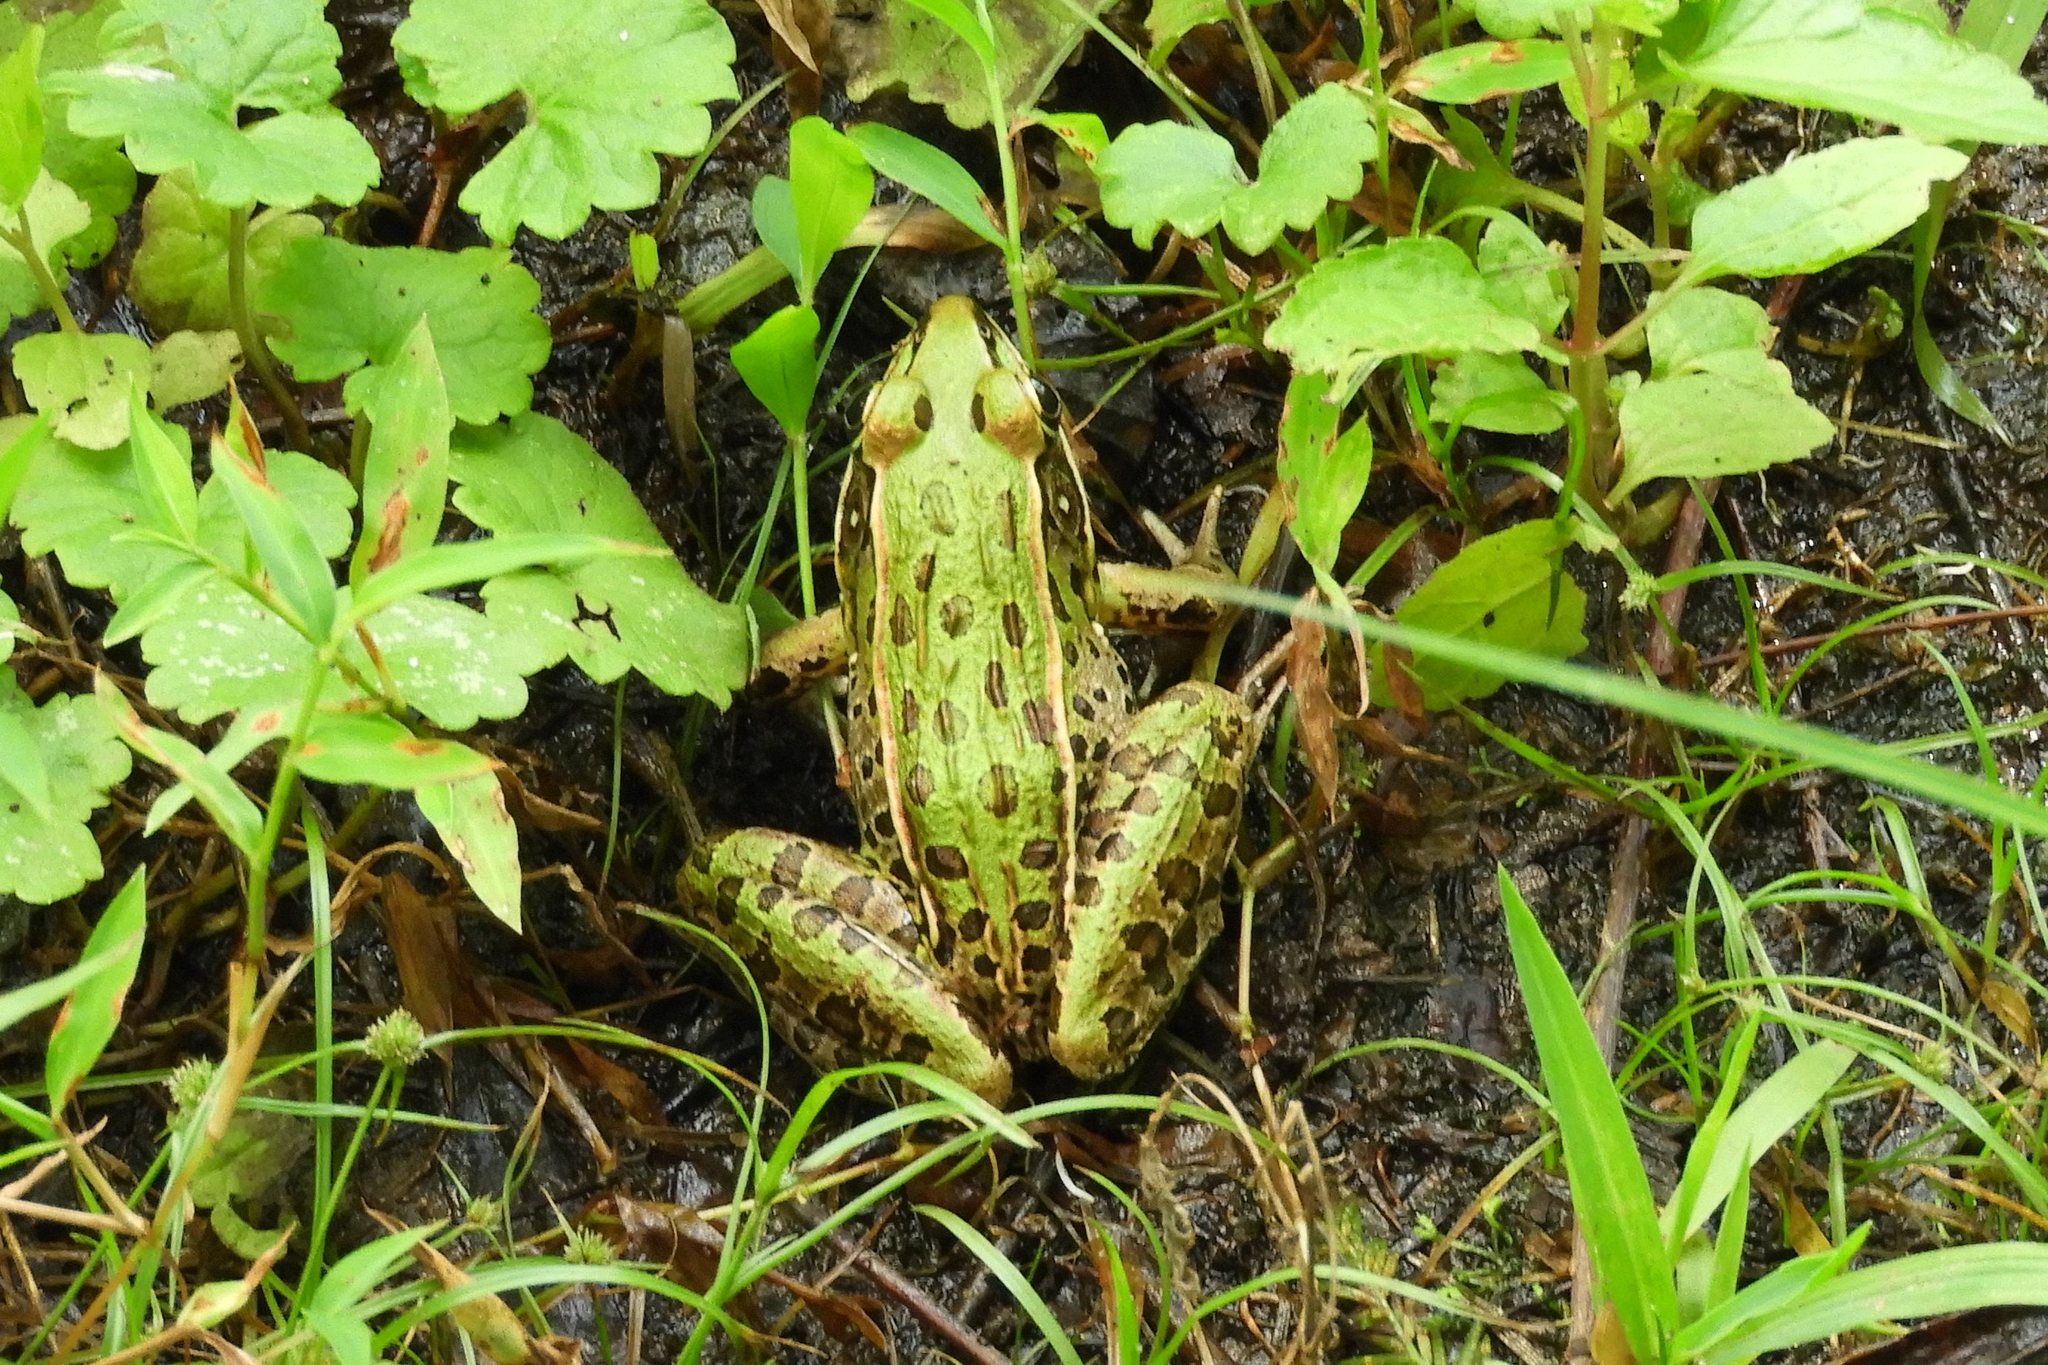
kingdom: Animalia
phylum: Chordata
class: Amphibia
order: Anura
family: Ranidae
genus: Lithobates
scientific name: Lithobates sphenocephalus
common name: Southern leopard frog
